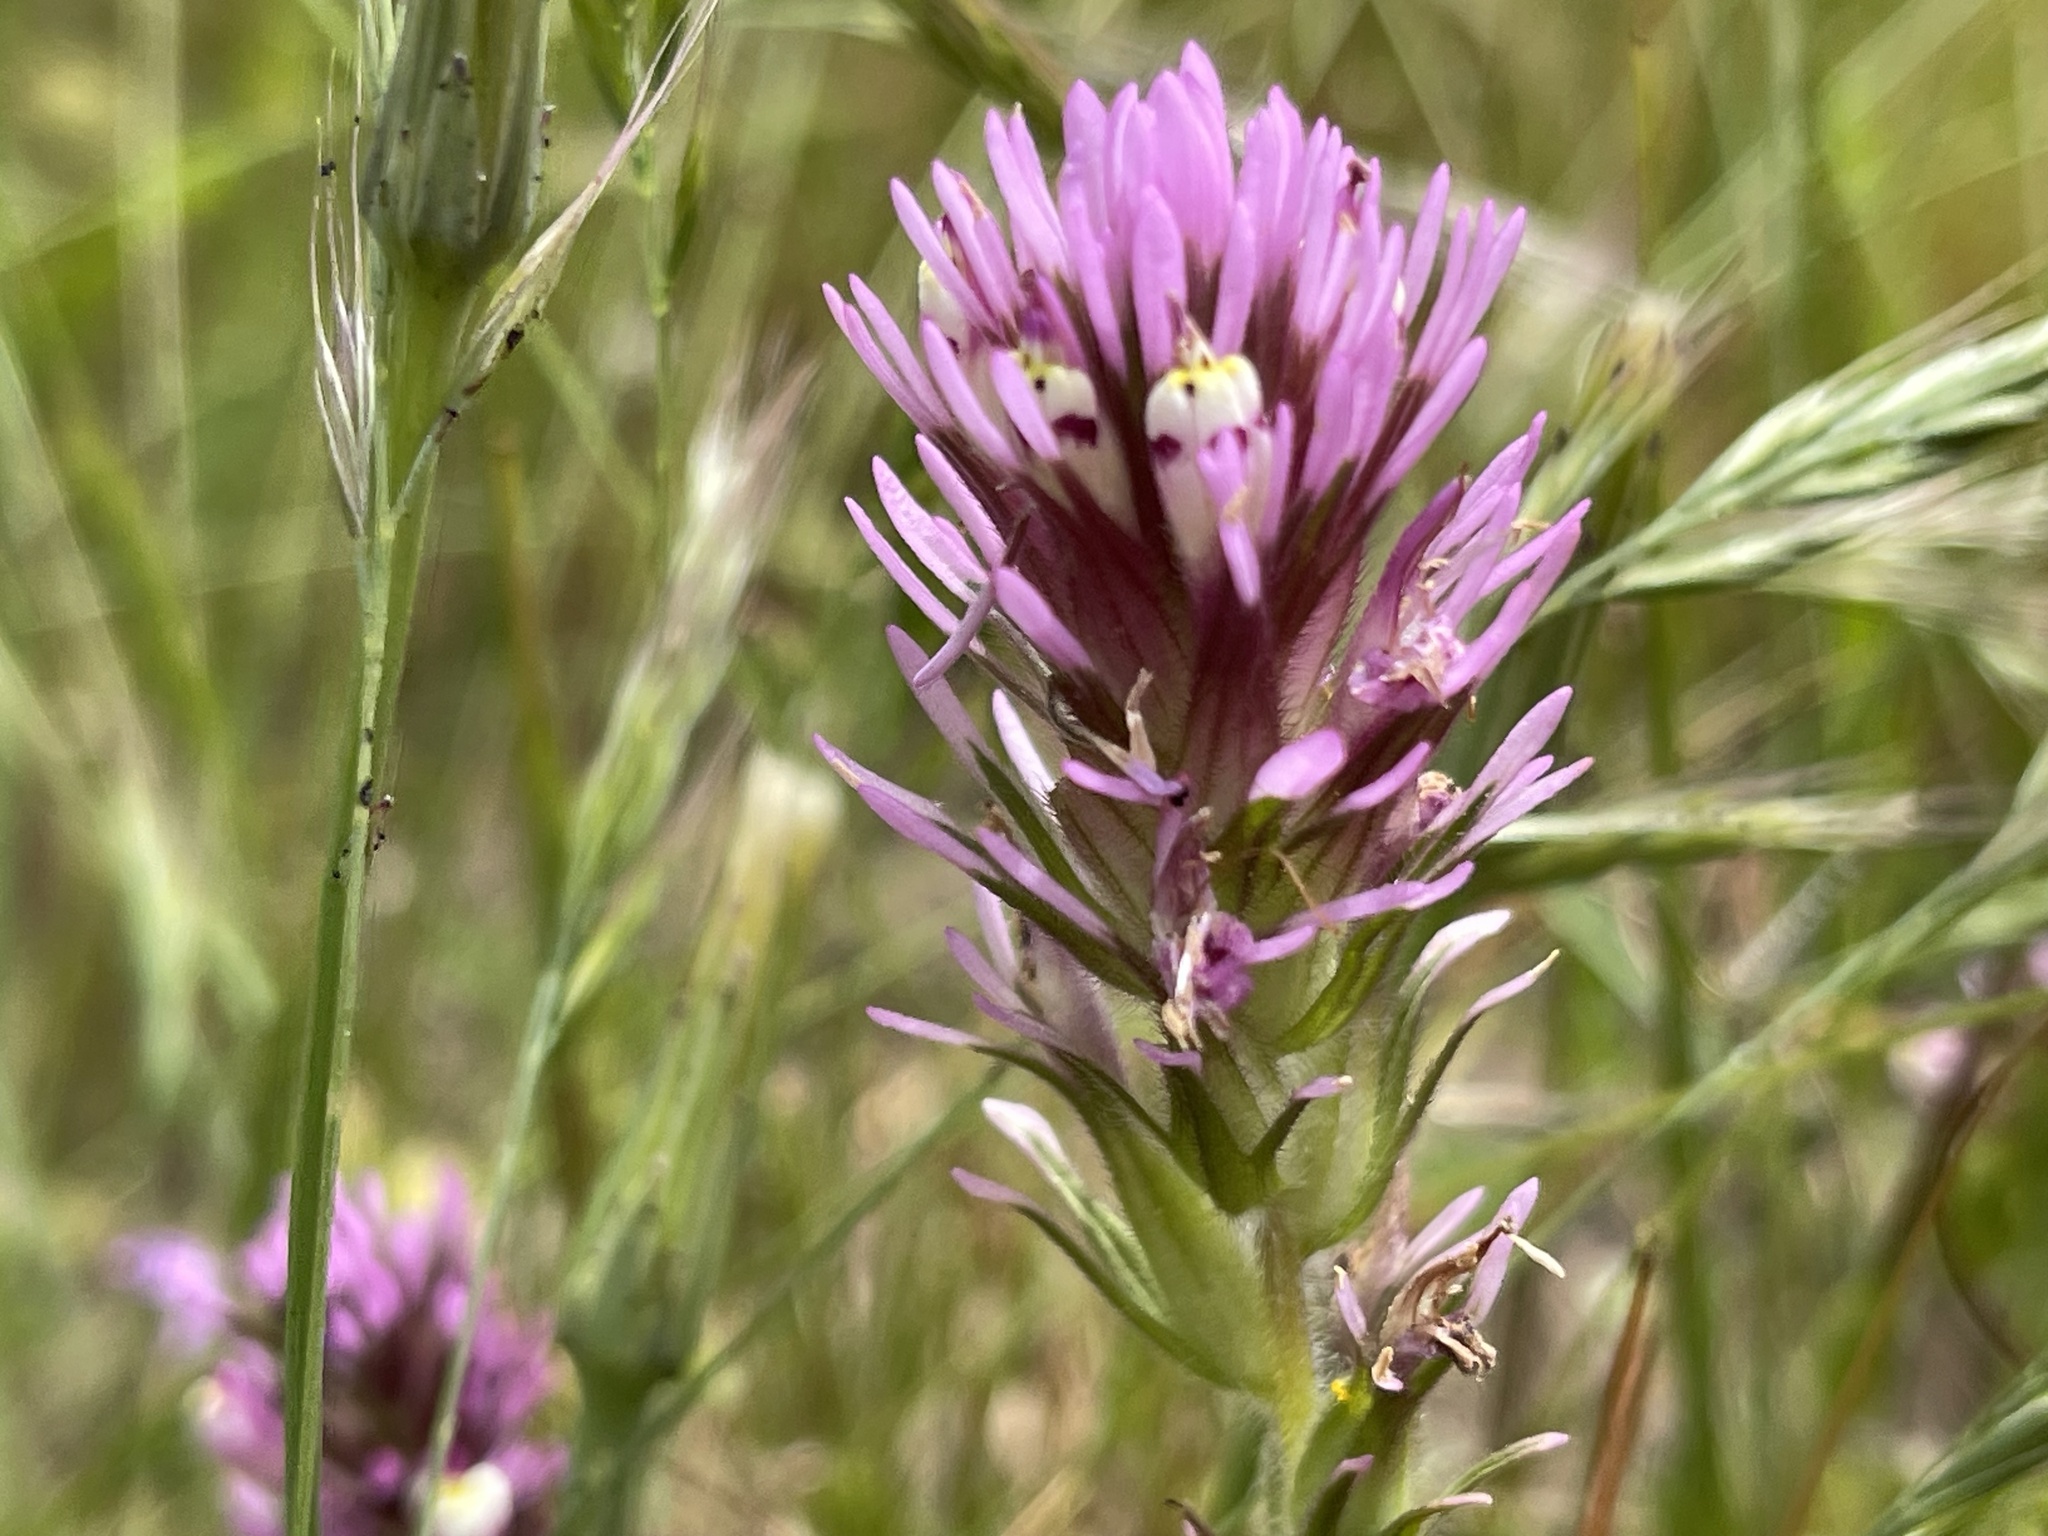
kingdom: Plantae
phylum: Tracheophyta
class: Magnoliopsida
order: Lamiales
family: Orobanchaceae
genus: Castilleja
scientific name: Castilleja densiflora
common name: Dense-flower indian paintbrush
